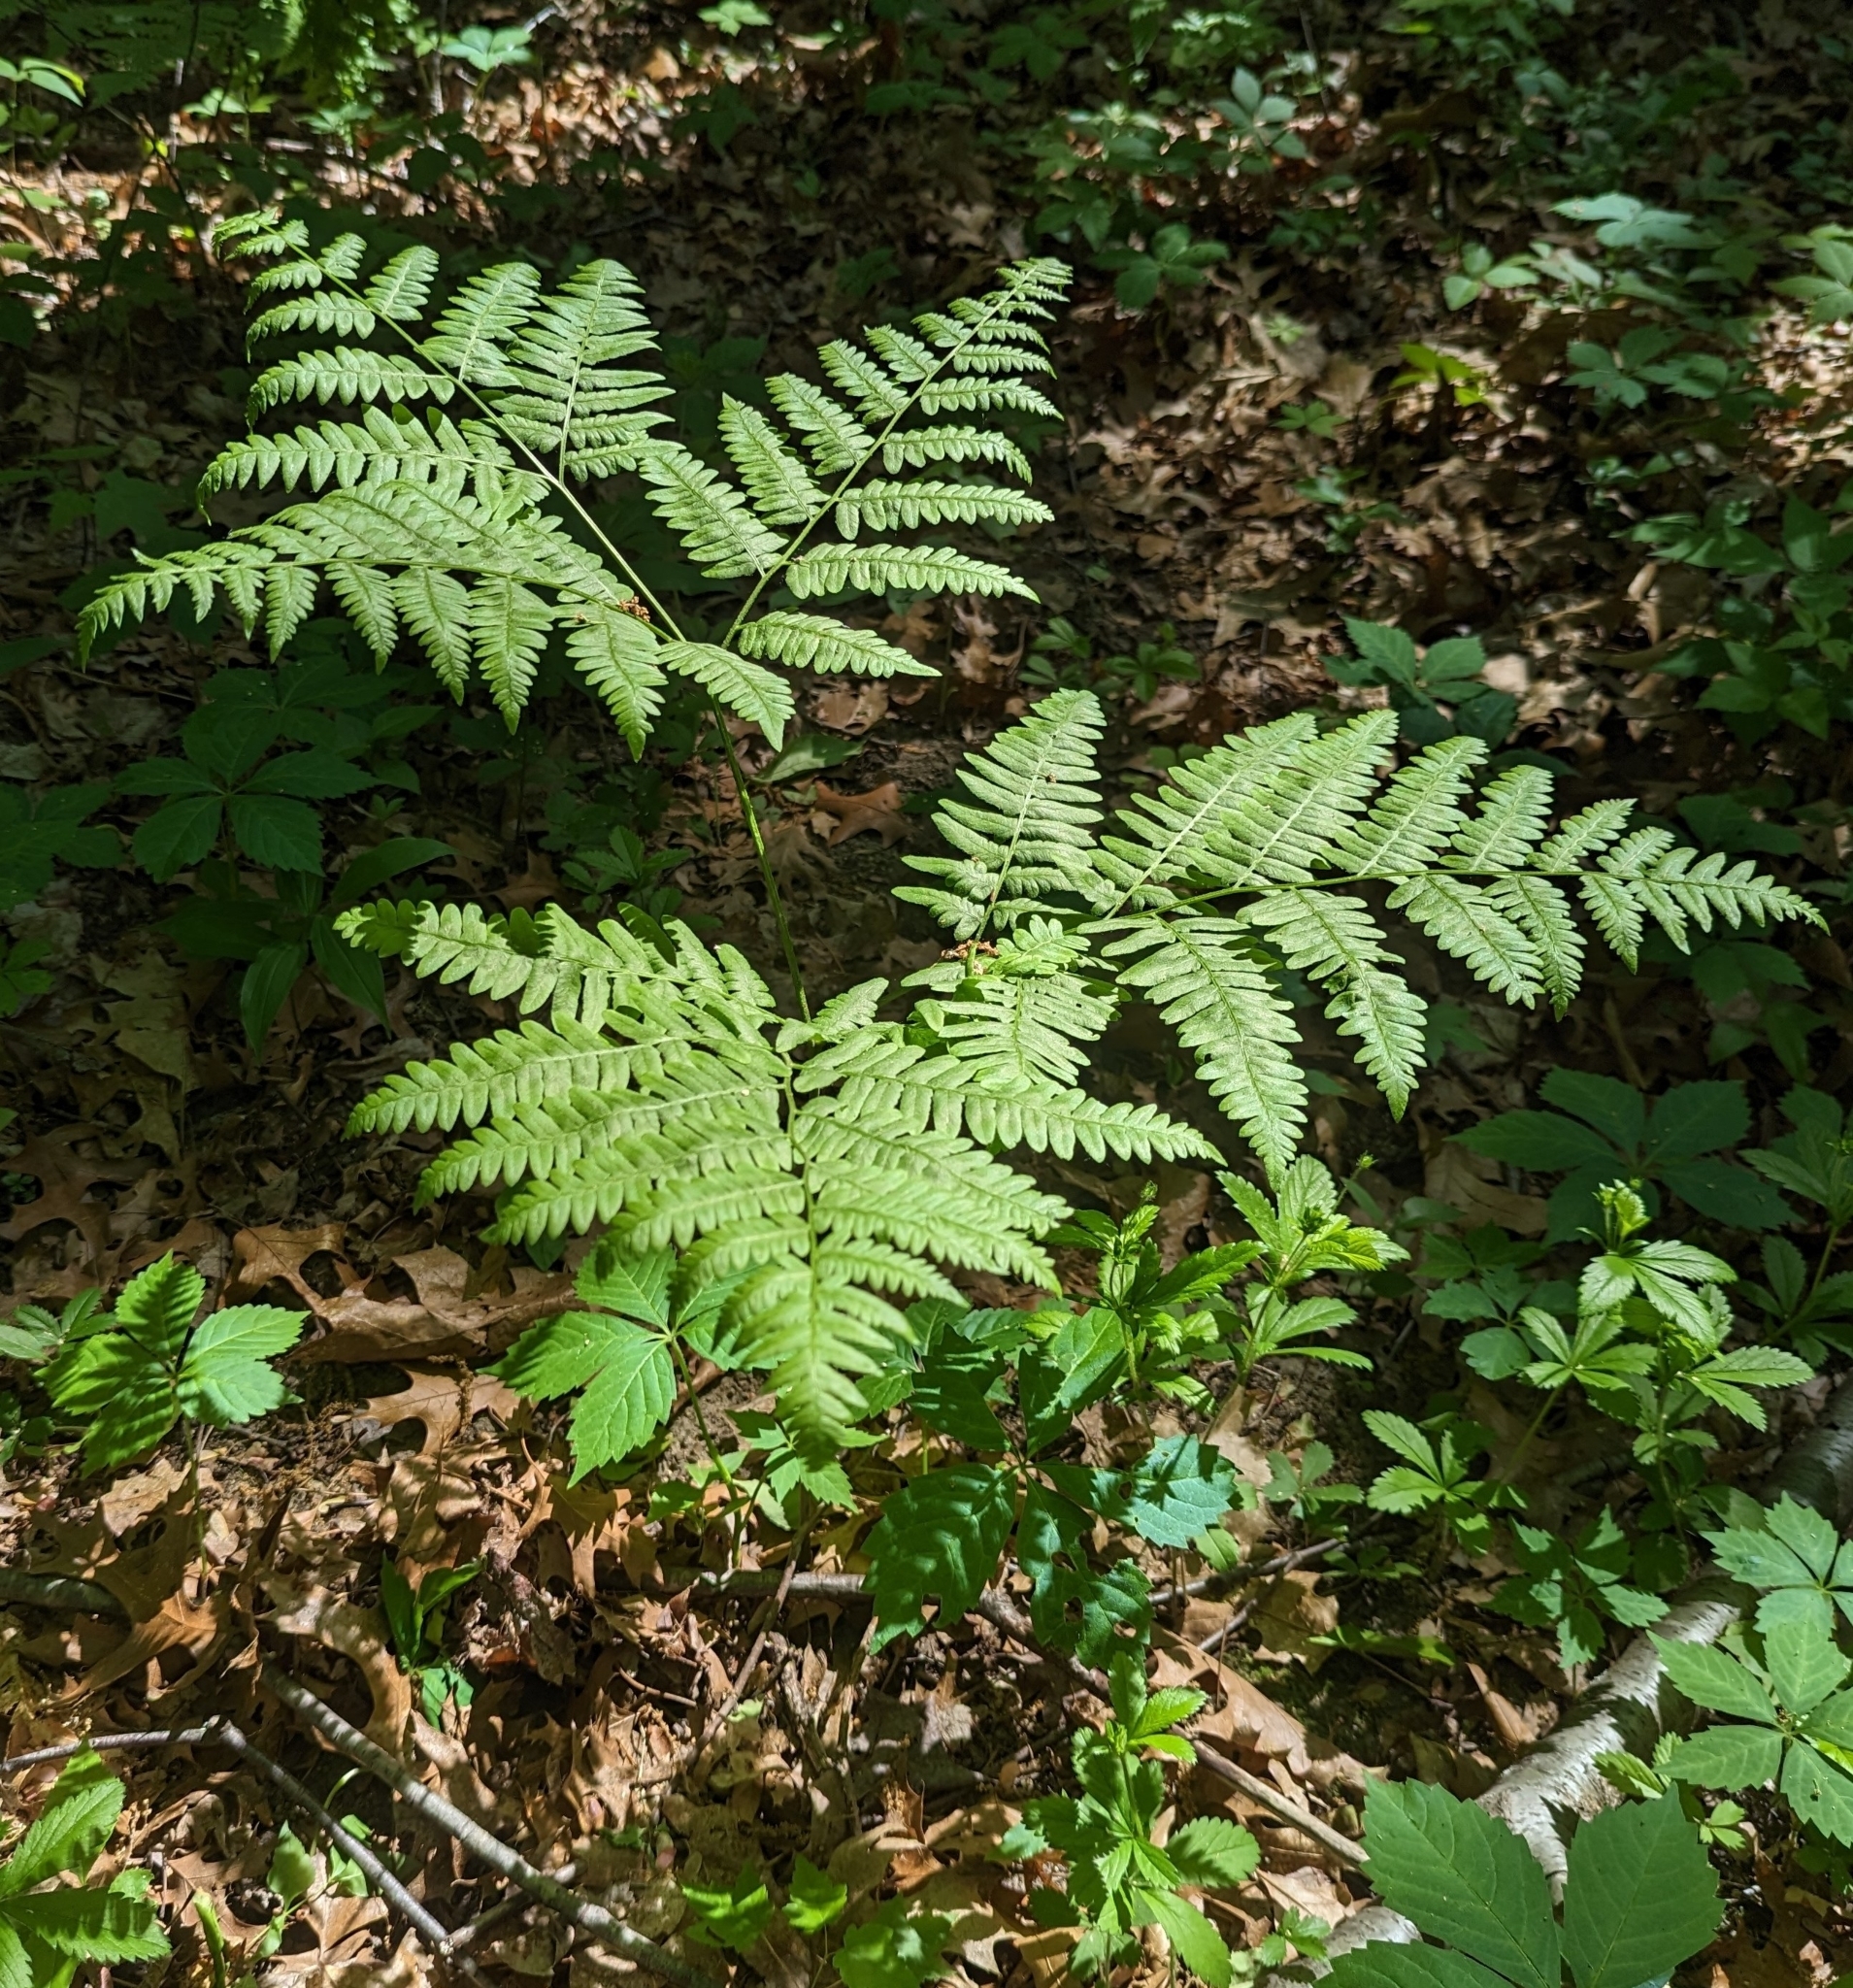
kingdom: Plantae
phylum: Tracheophyta
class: Polypodiopsida
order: Polypodiales
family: Dennstaedtiaceae
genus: Pteridium
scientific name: Pteridium aquilinum
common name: Bracken
